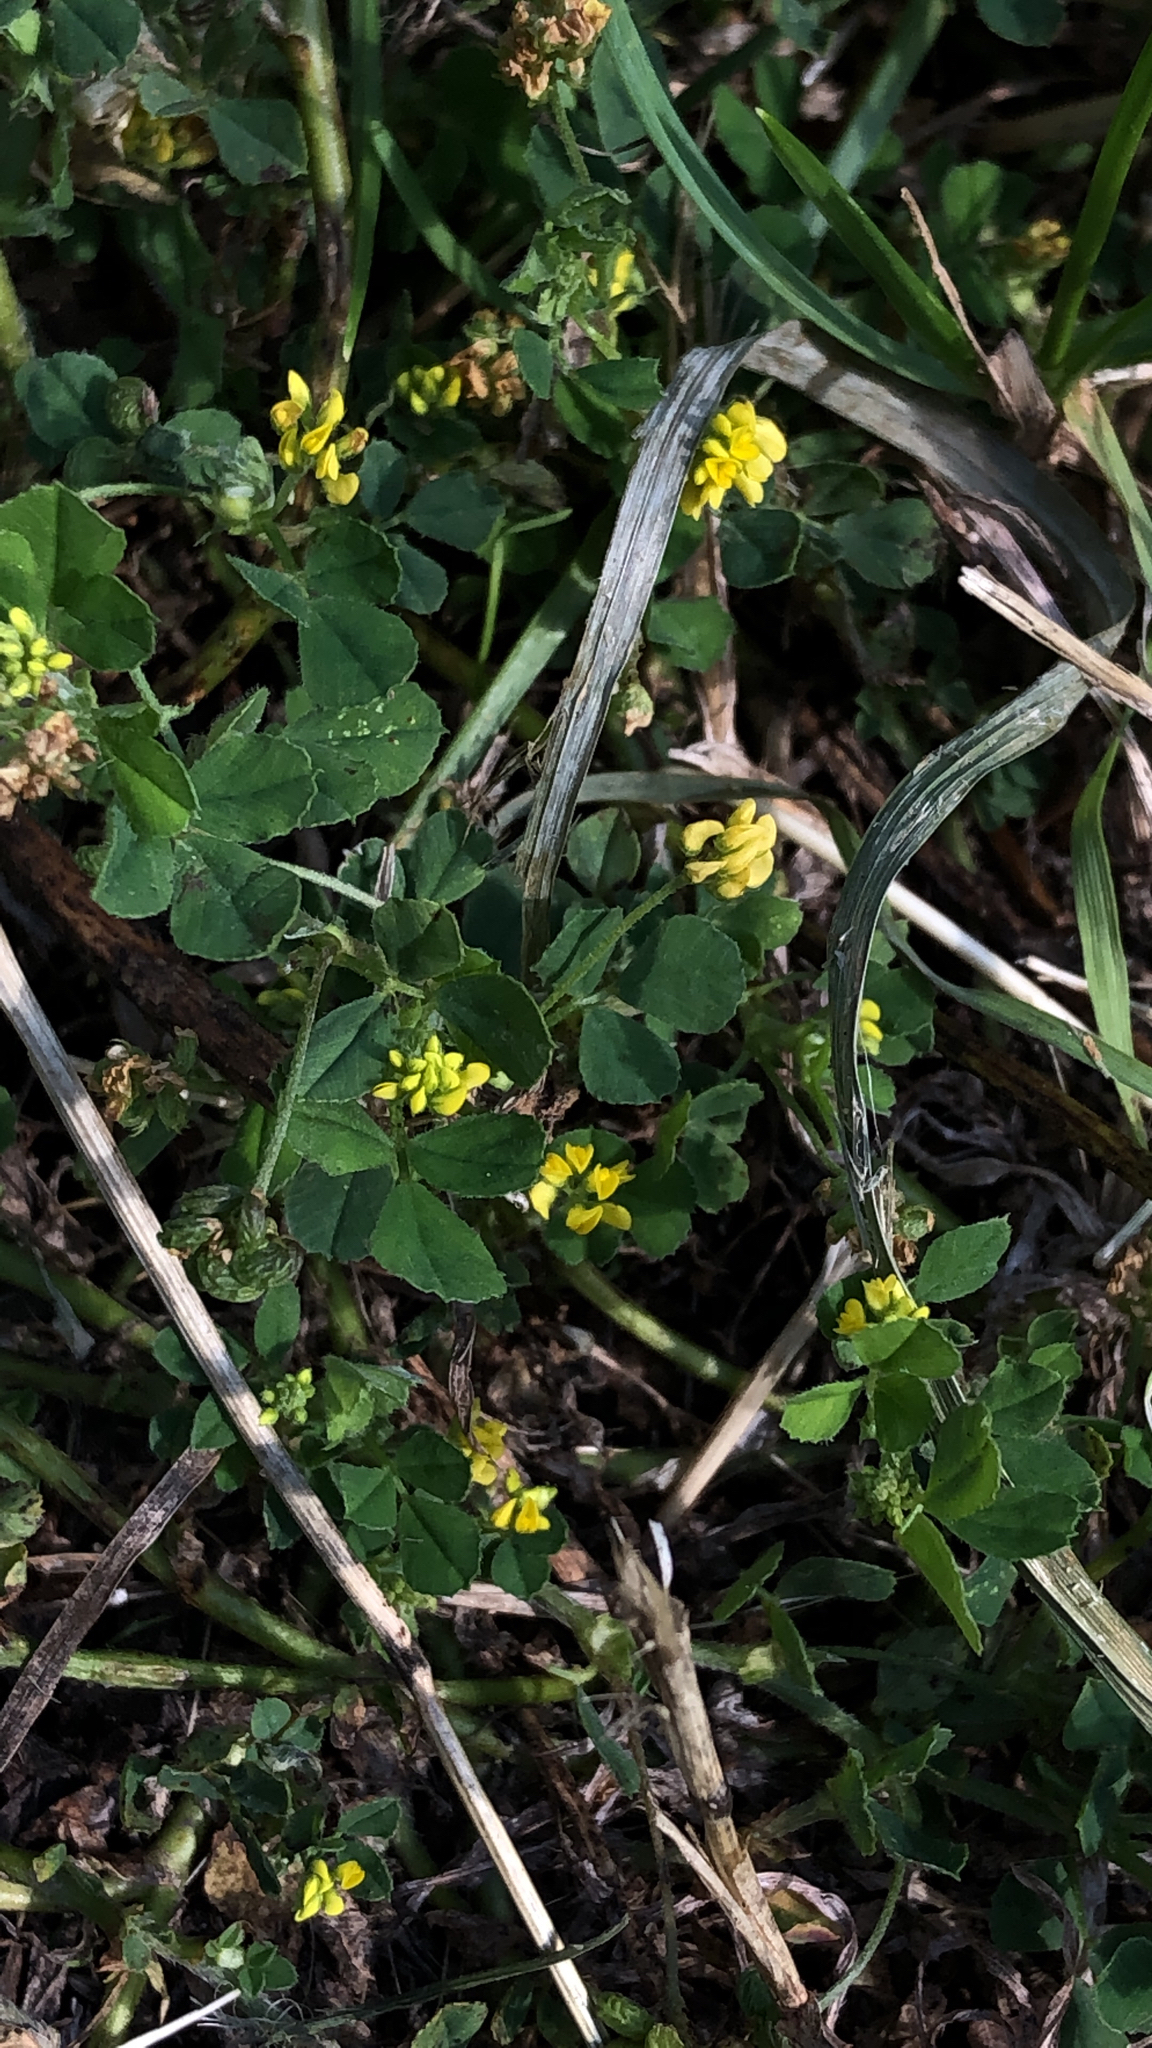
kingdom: Plantae
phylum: Tracheophyta
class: Magnoliopsida
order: Fabales
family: Fabaceae
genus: Medicago
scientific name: Medicago lupulina
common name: Black medick
